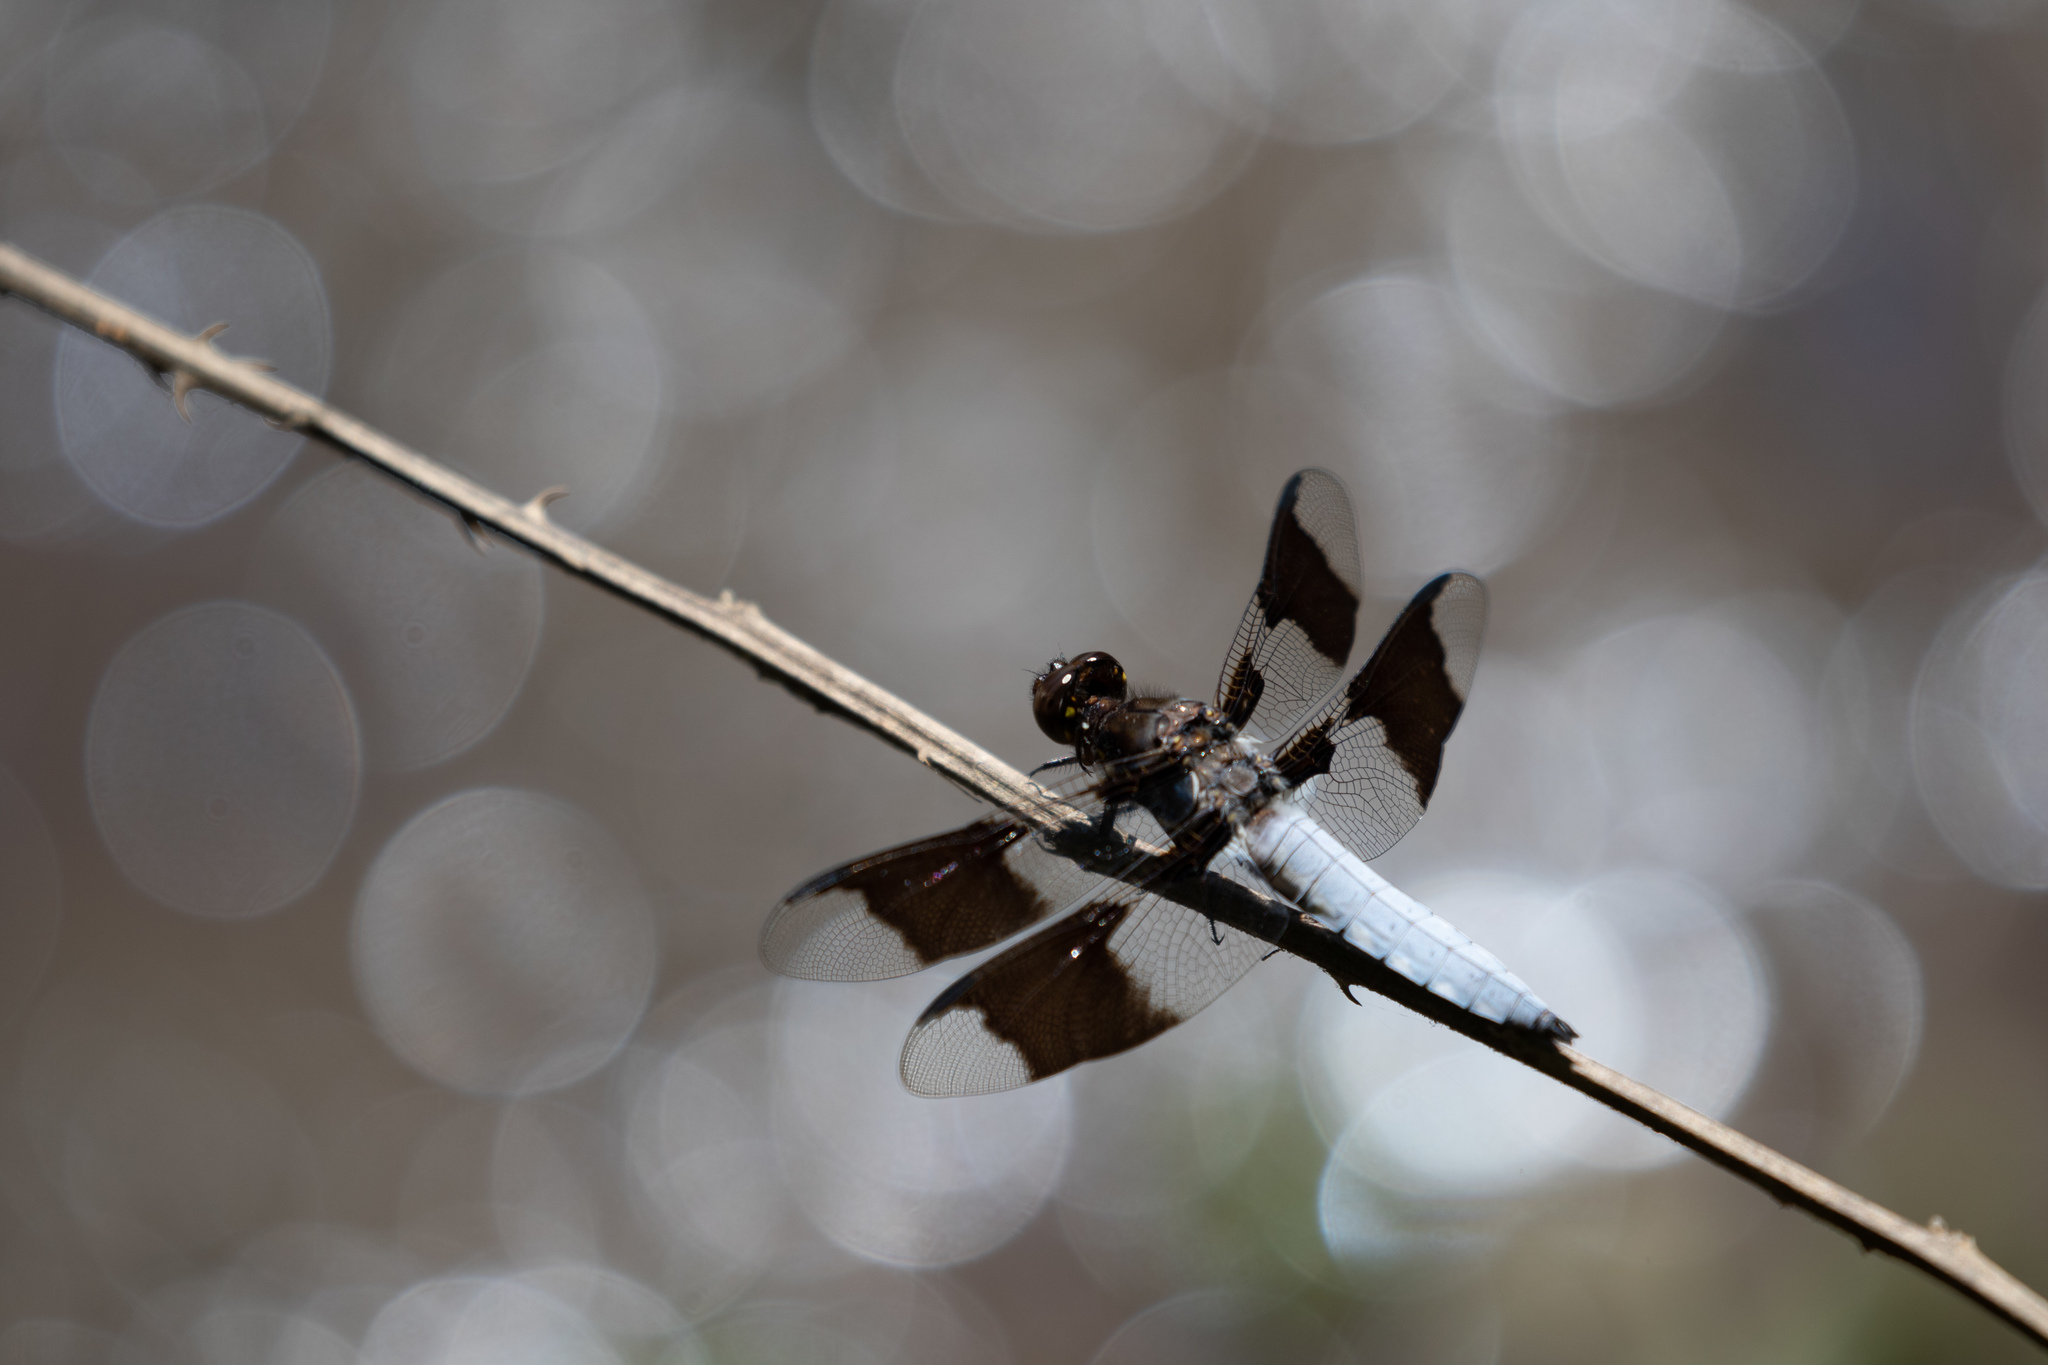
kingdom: Animalia
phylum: Arthropoda
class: Insecta
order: Odonata
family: Libellulidae
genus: Plathemis
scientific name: Plathemis lydia
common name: Common whitetail
